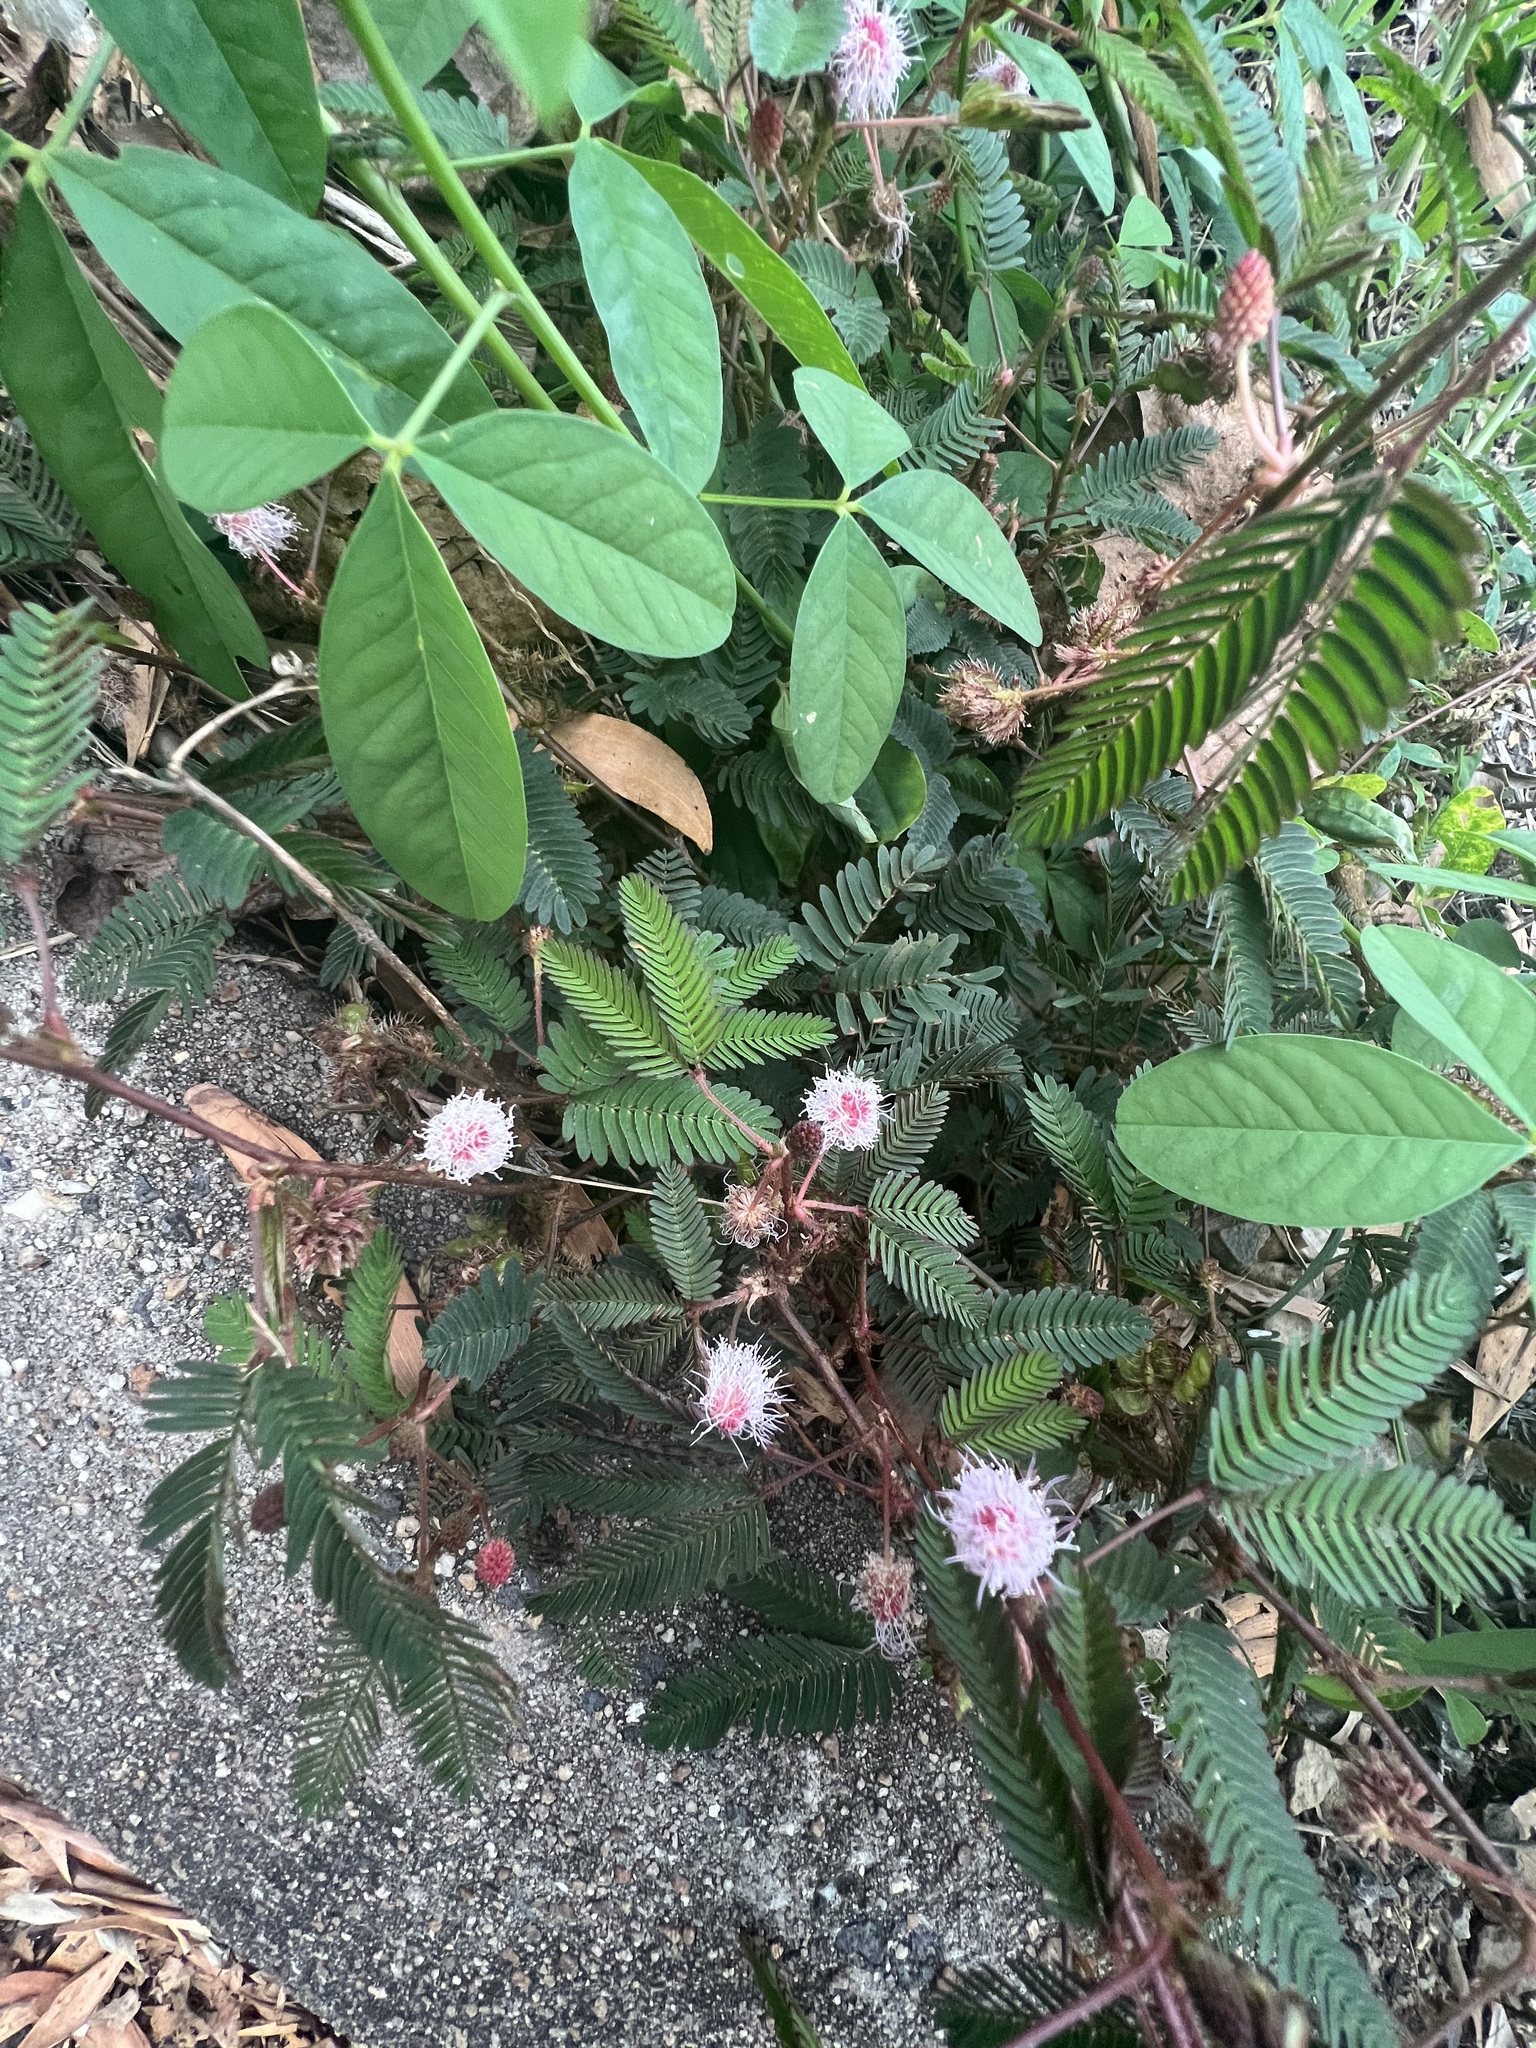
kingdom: Plantae
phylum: Tracheophyta
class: Magnoliopsida
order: Fabales
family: Fabaceae
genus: Mimosa
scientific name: Mimosa pudica
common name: Sensitive plant
